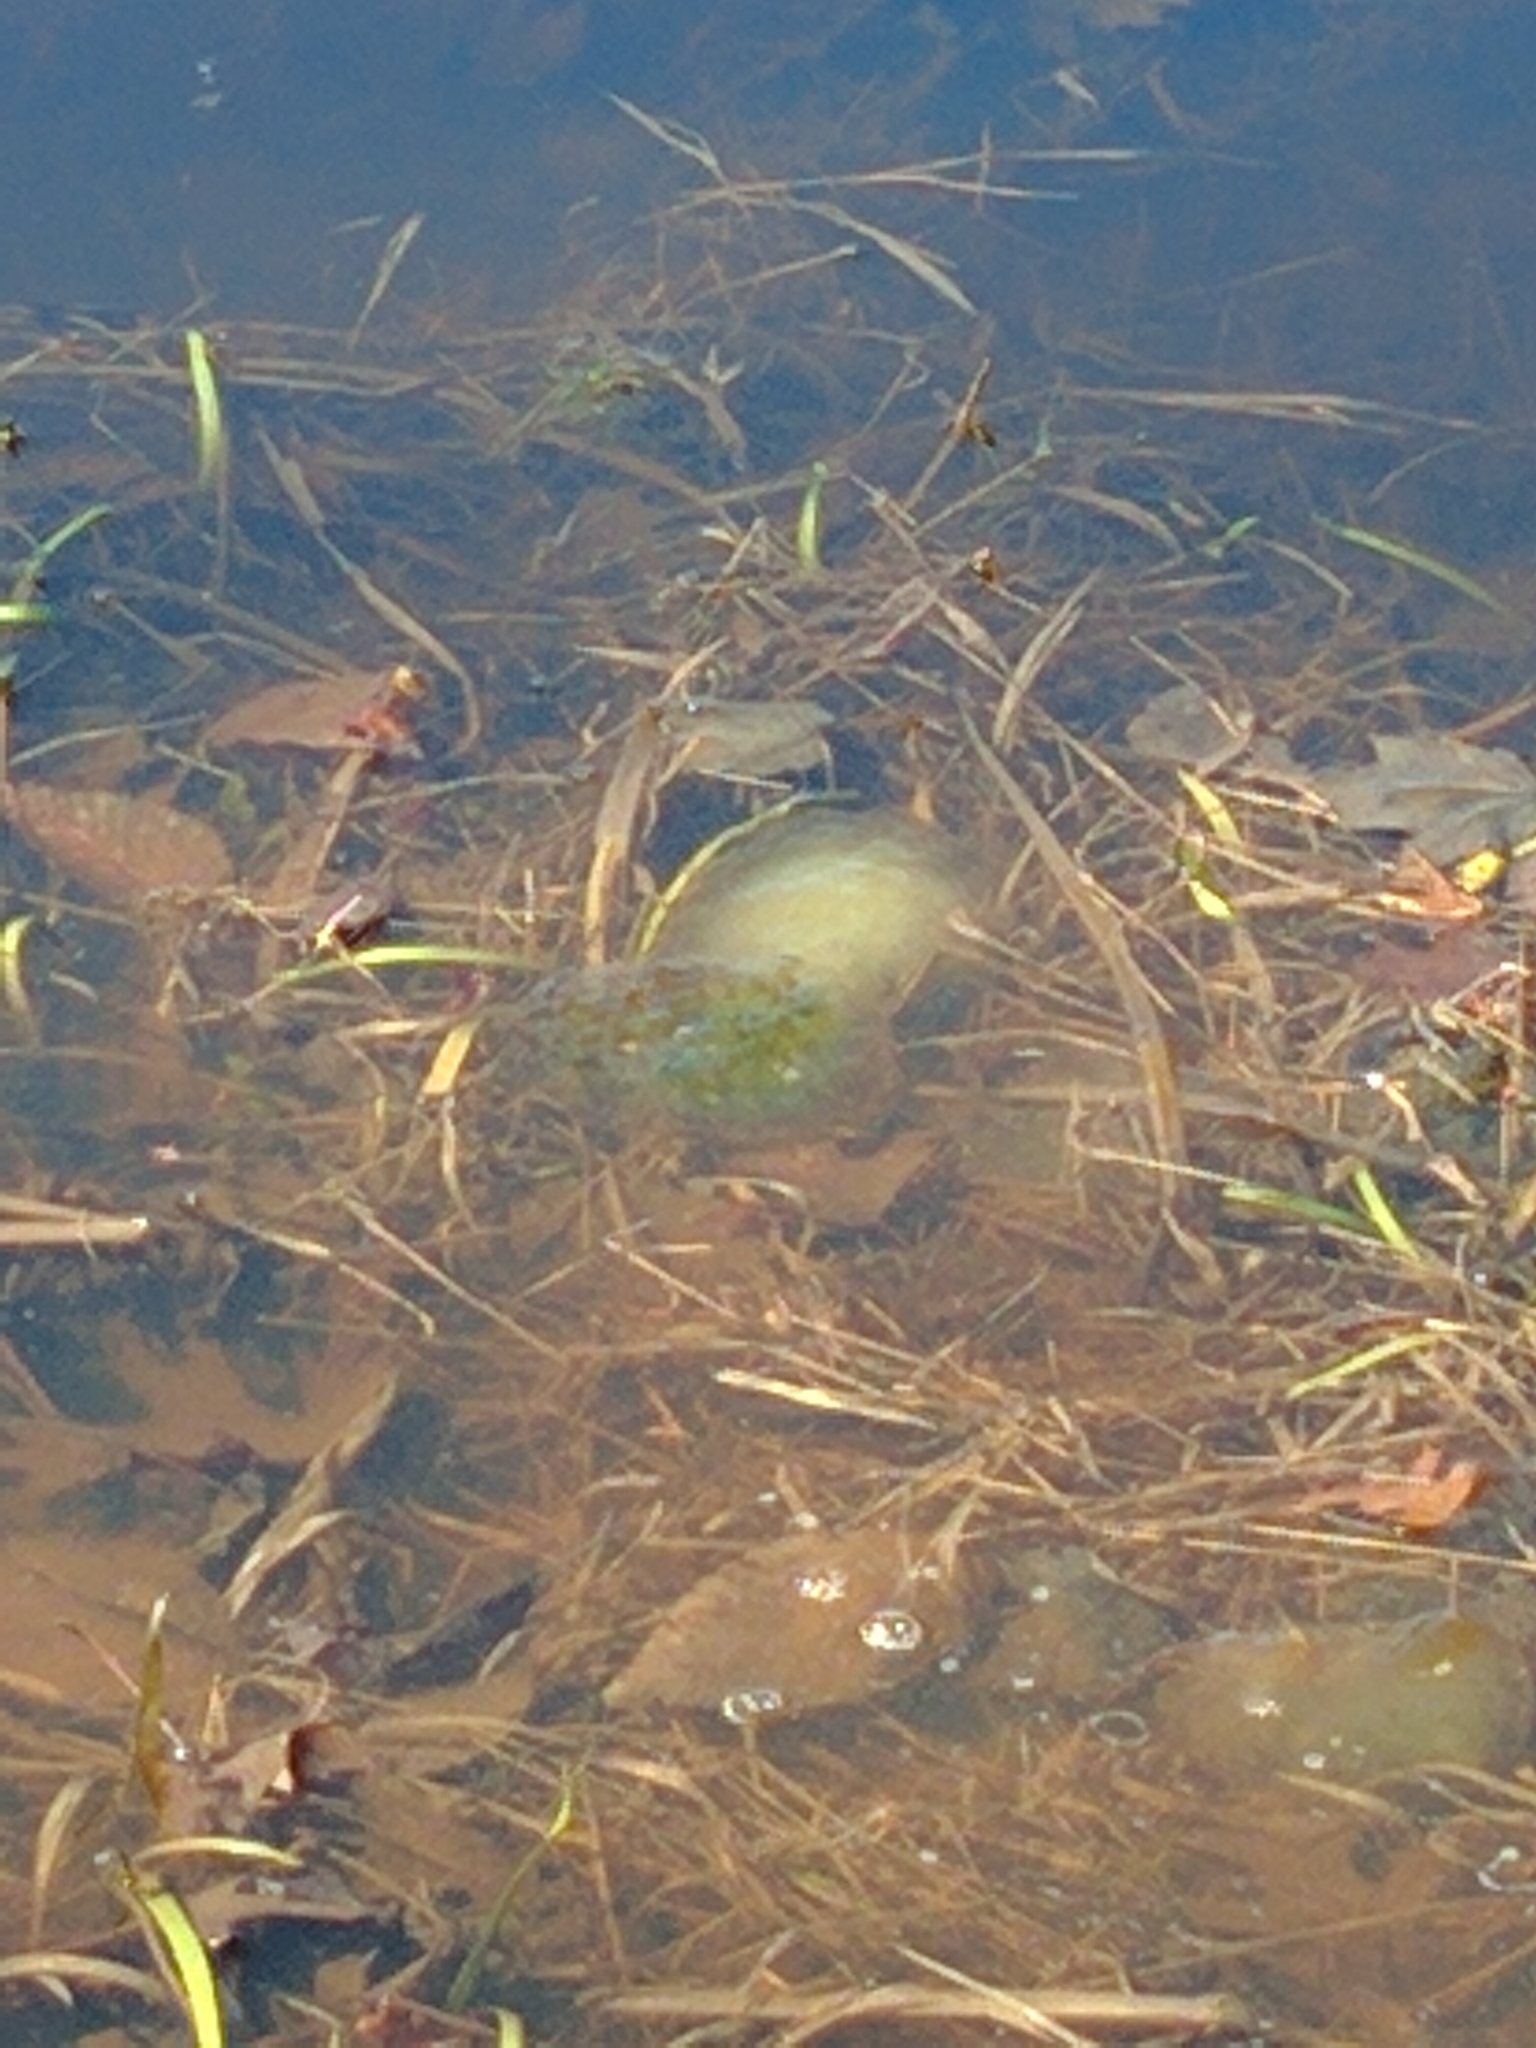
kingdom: Animalia
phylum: Chordata
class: Amphibia
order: Caudata
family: Ambystomatidae
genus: Ambystoma
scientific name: Ambystoma maculatum
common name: Spotted salamander
